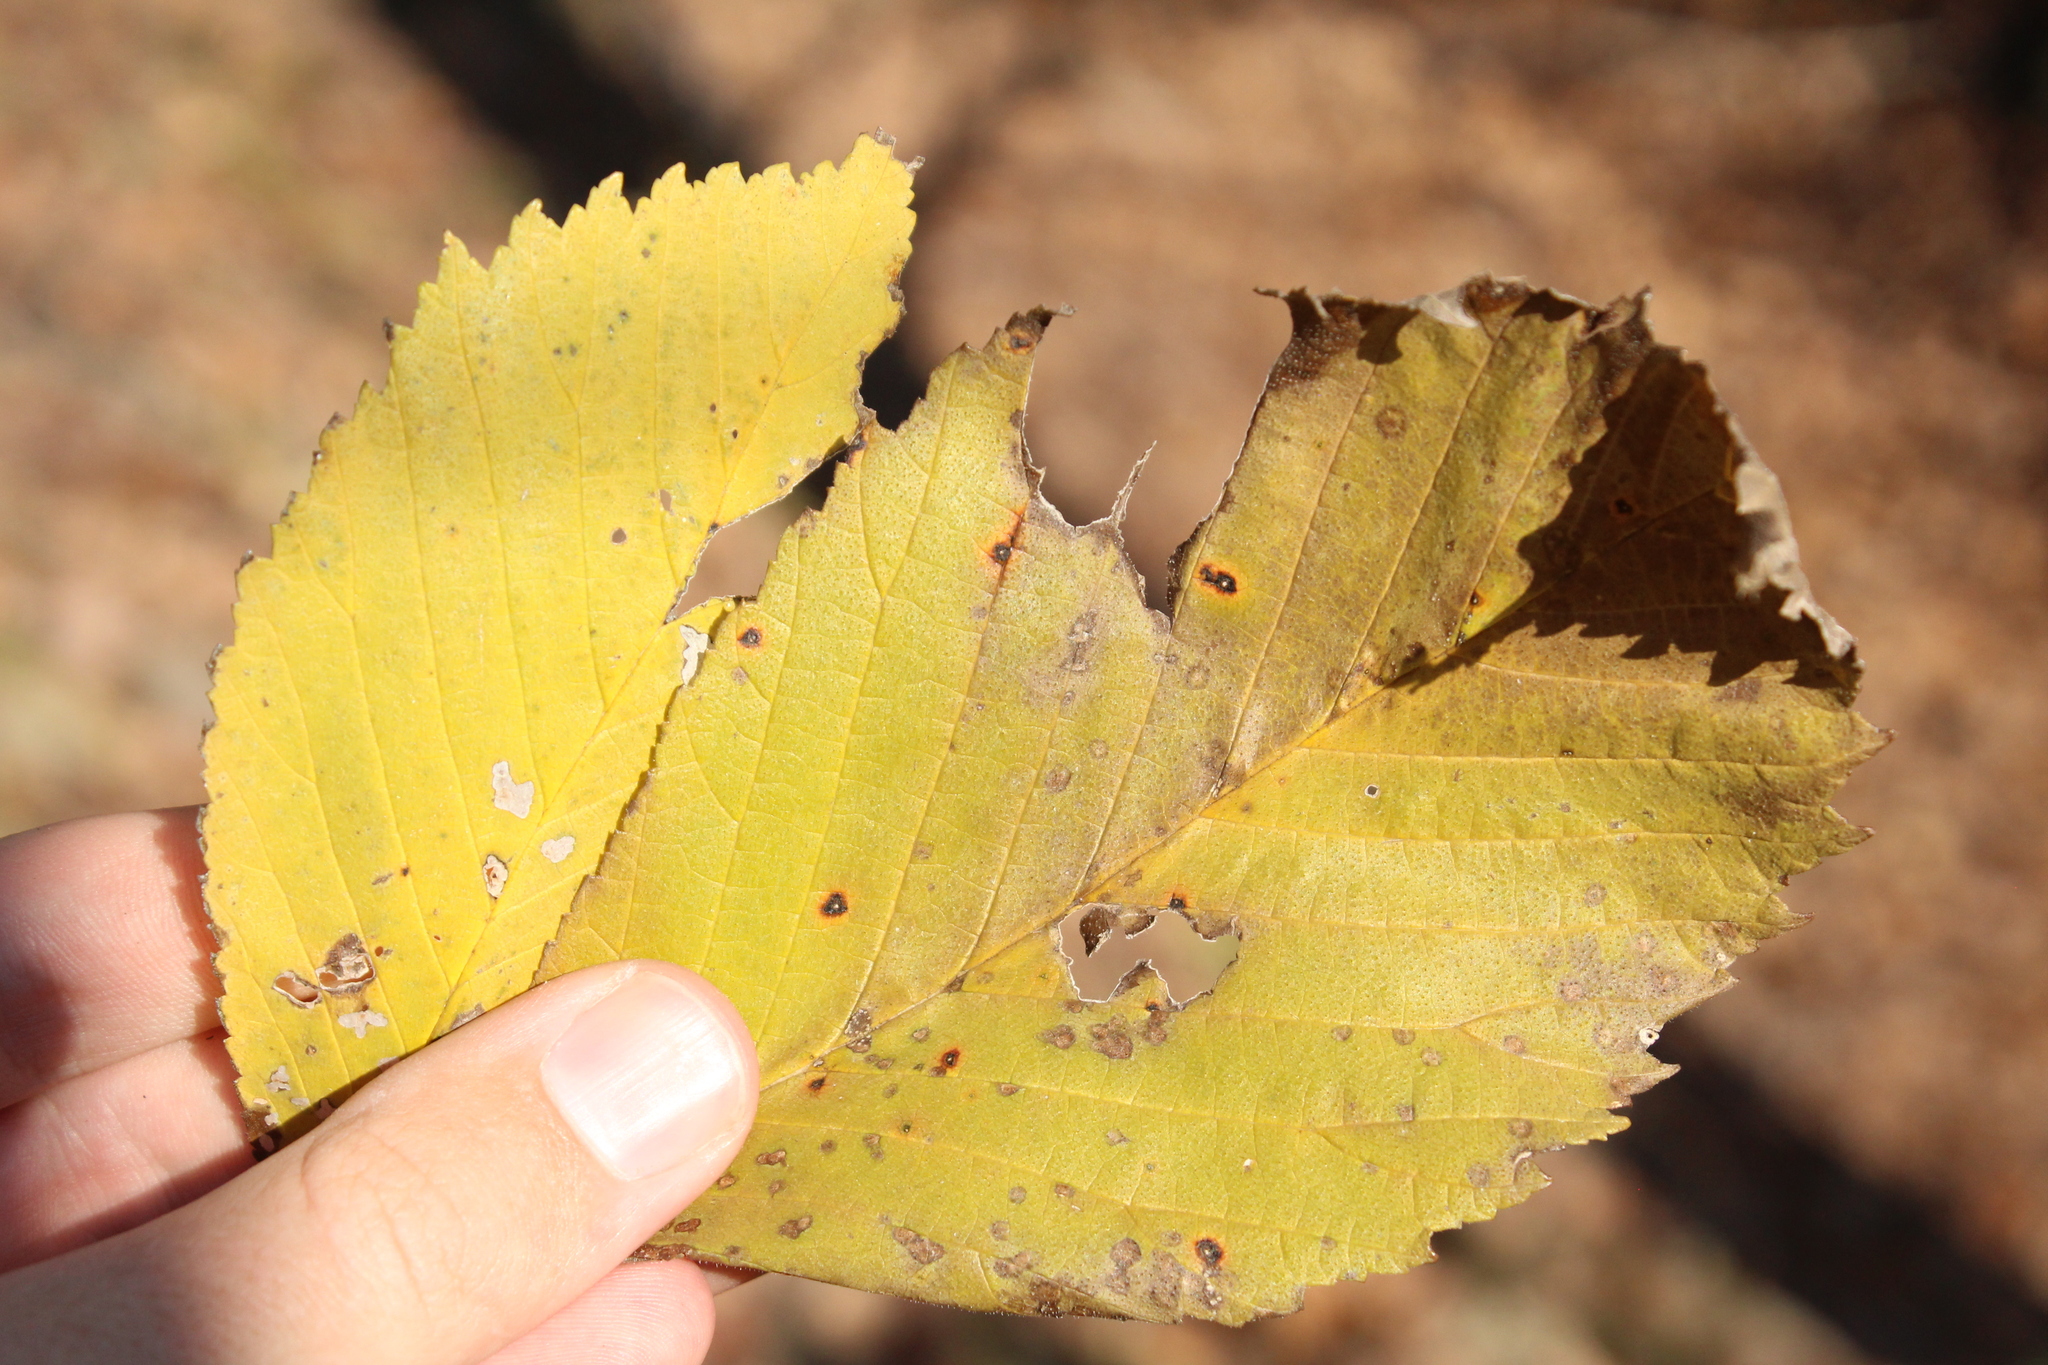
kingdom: Plantae
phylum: Tracheophyta
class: Magnoliopsida
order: Rosales
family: Ulmaceae
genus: Ulmus
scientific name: Ulmus rubra
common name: Slippery elm
